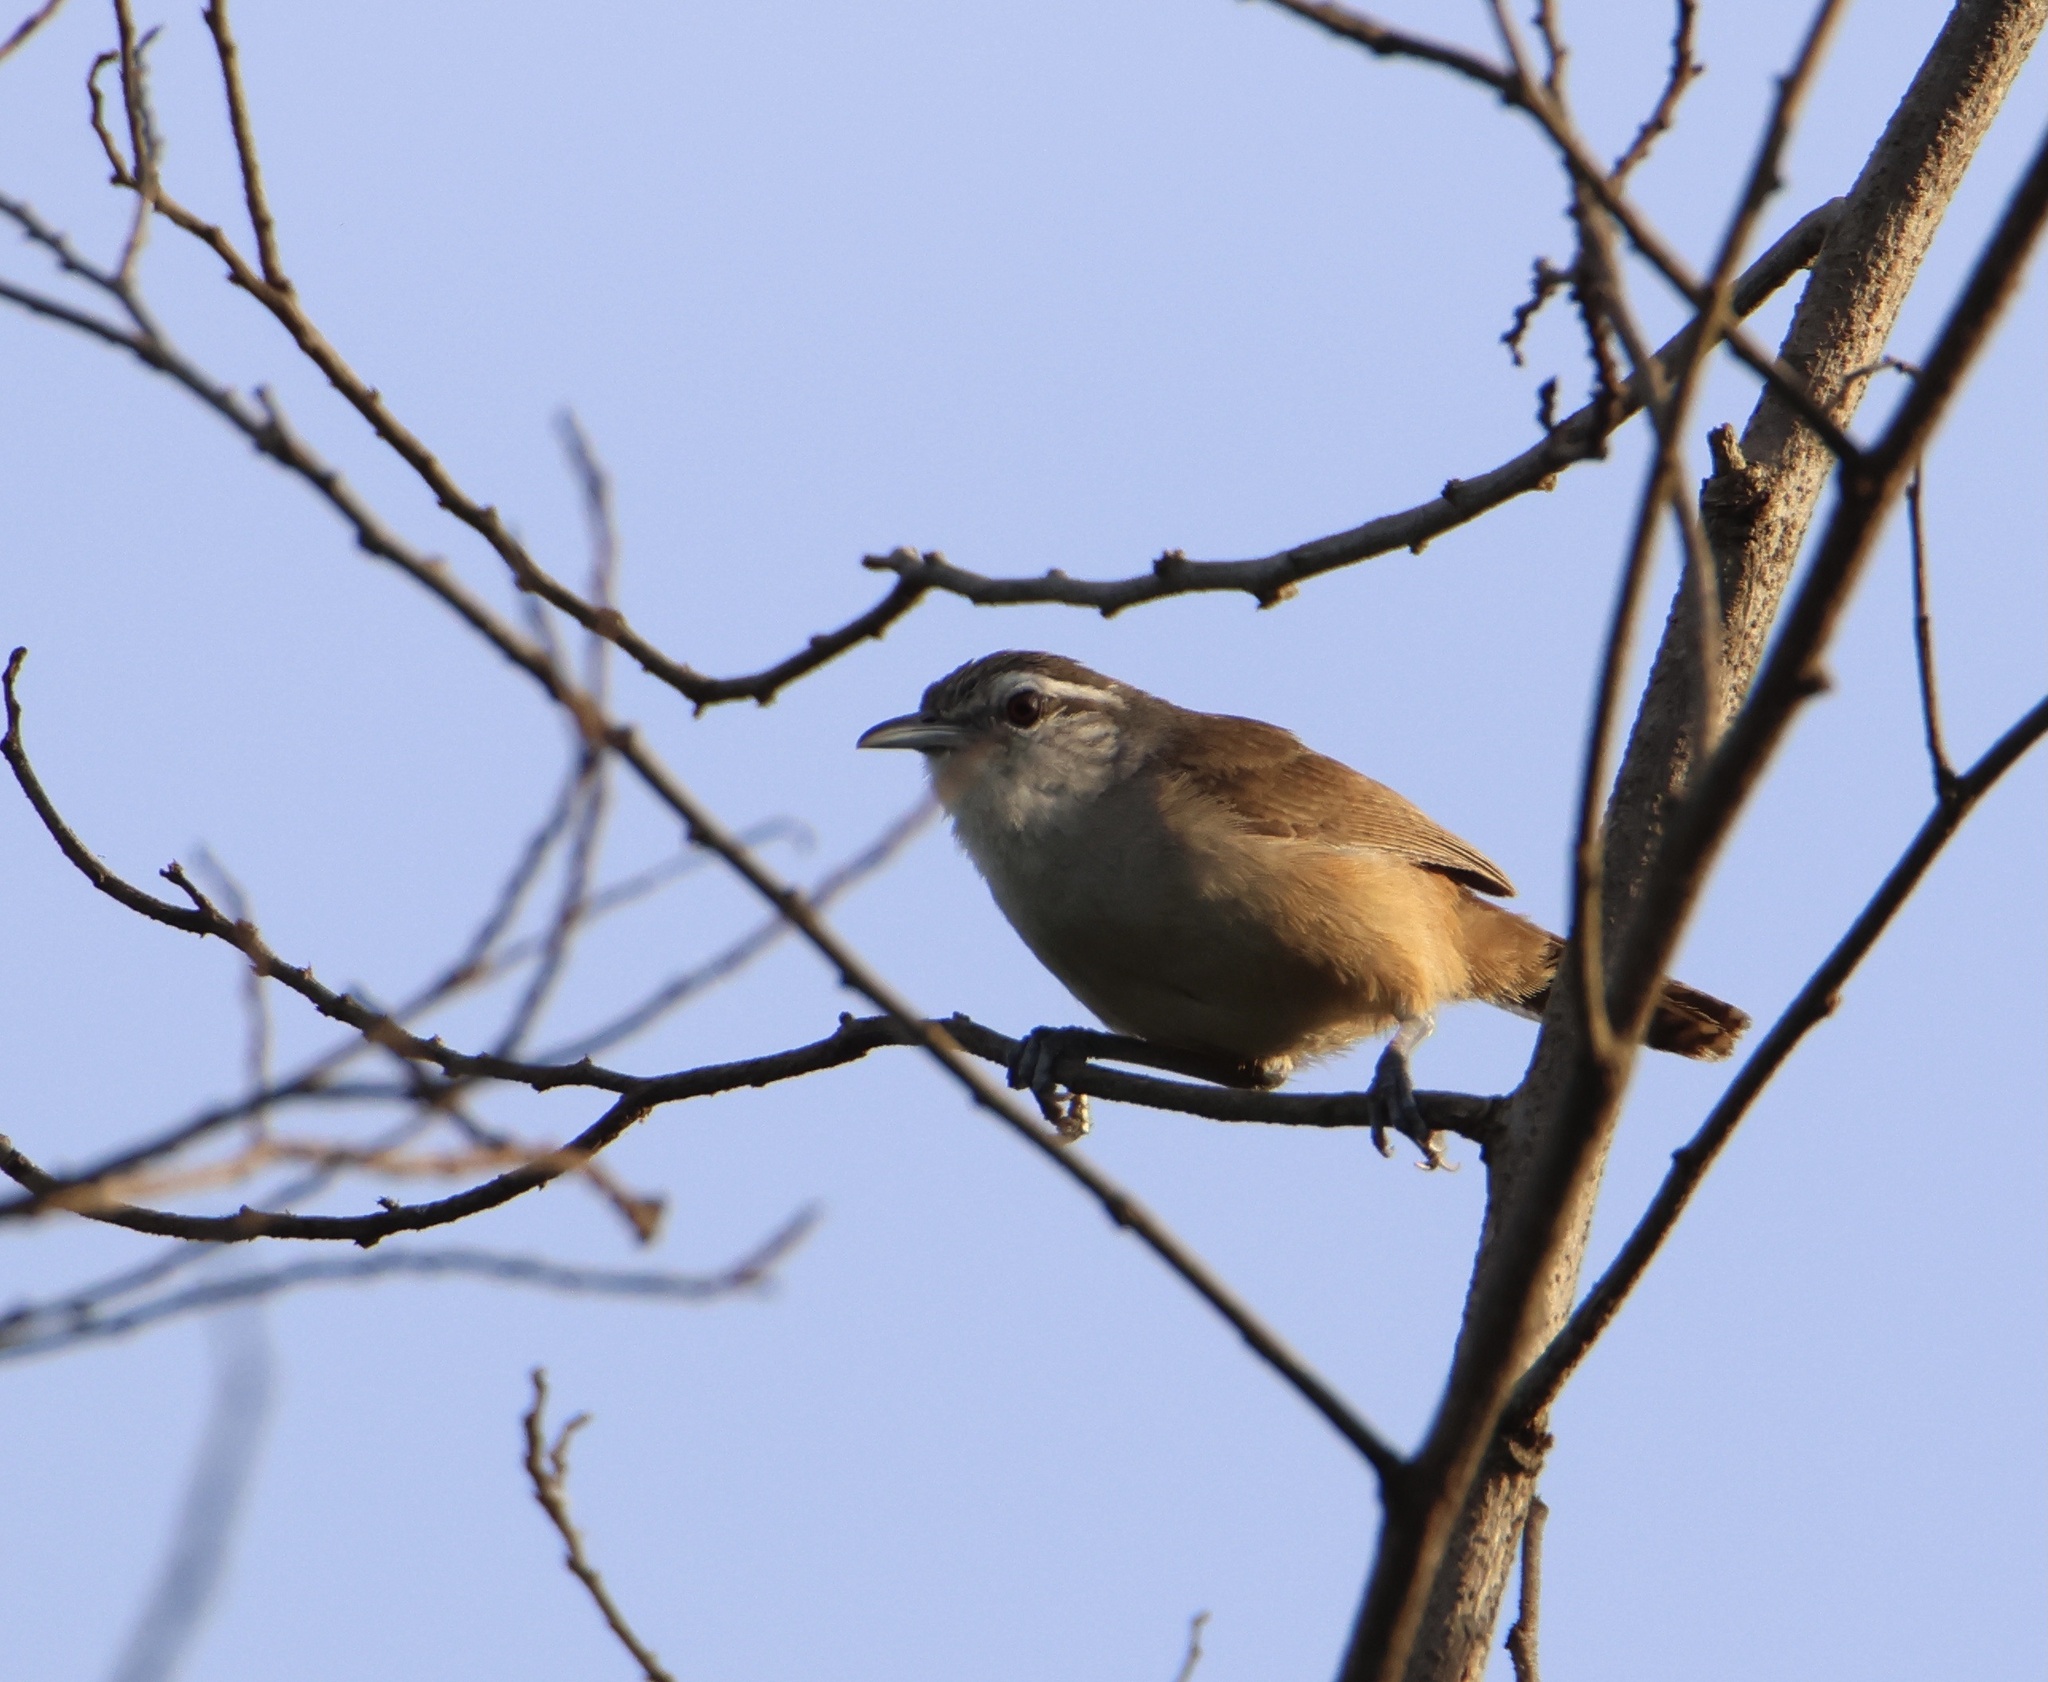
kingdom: Animalia
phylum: Chordata
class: Aves
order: Passeriformes
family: Troglodytidae
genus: Cantorchilus
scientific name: Cantorchilus leucotis
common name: Buff-breasted wren
